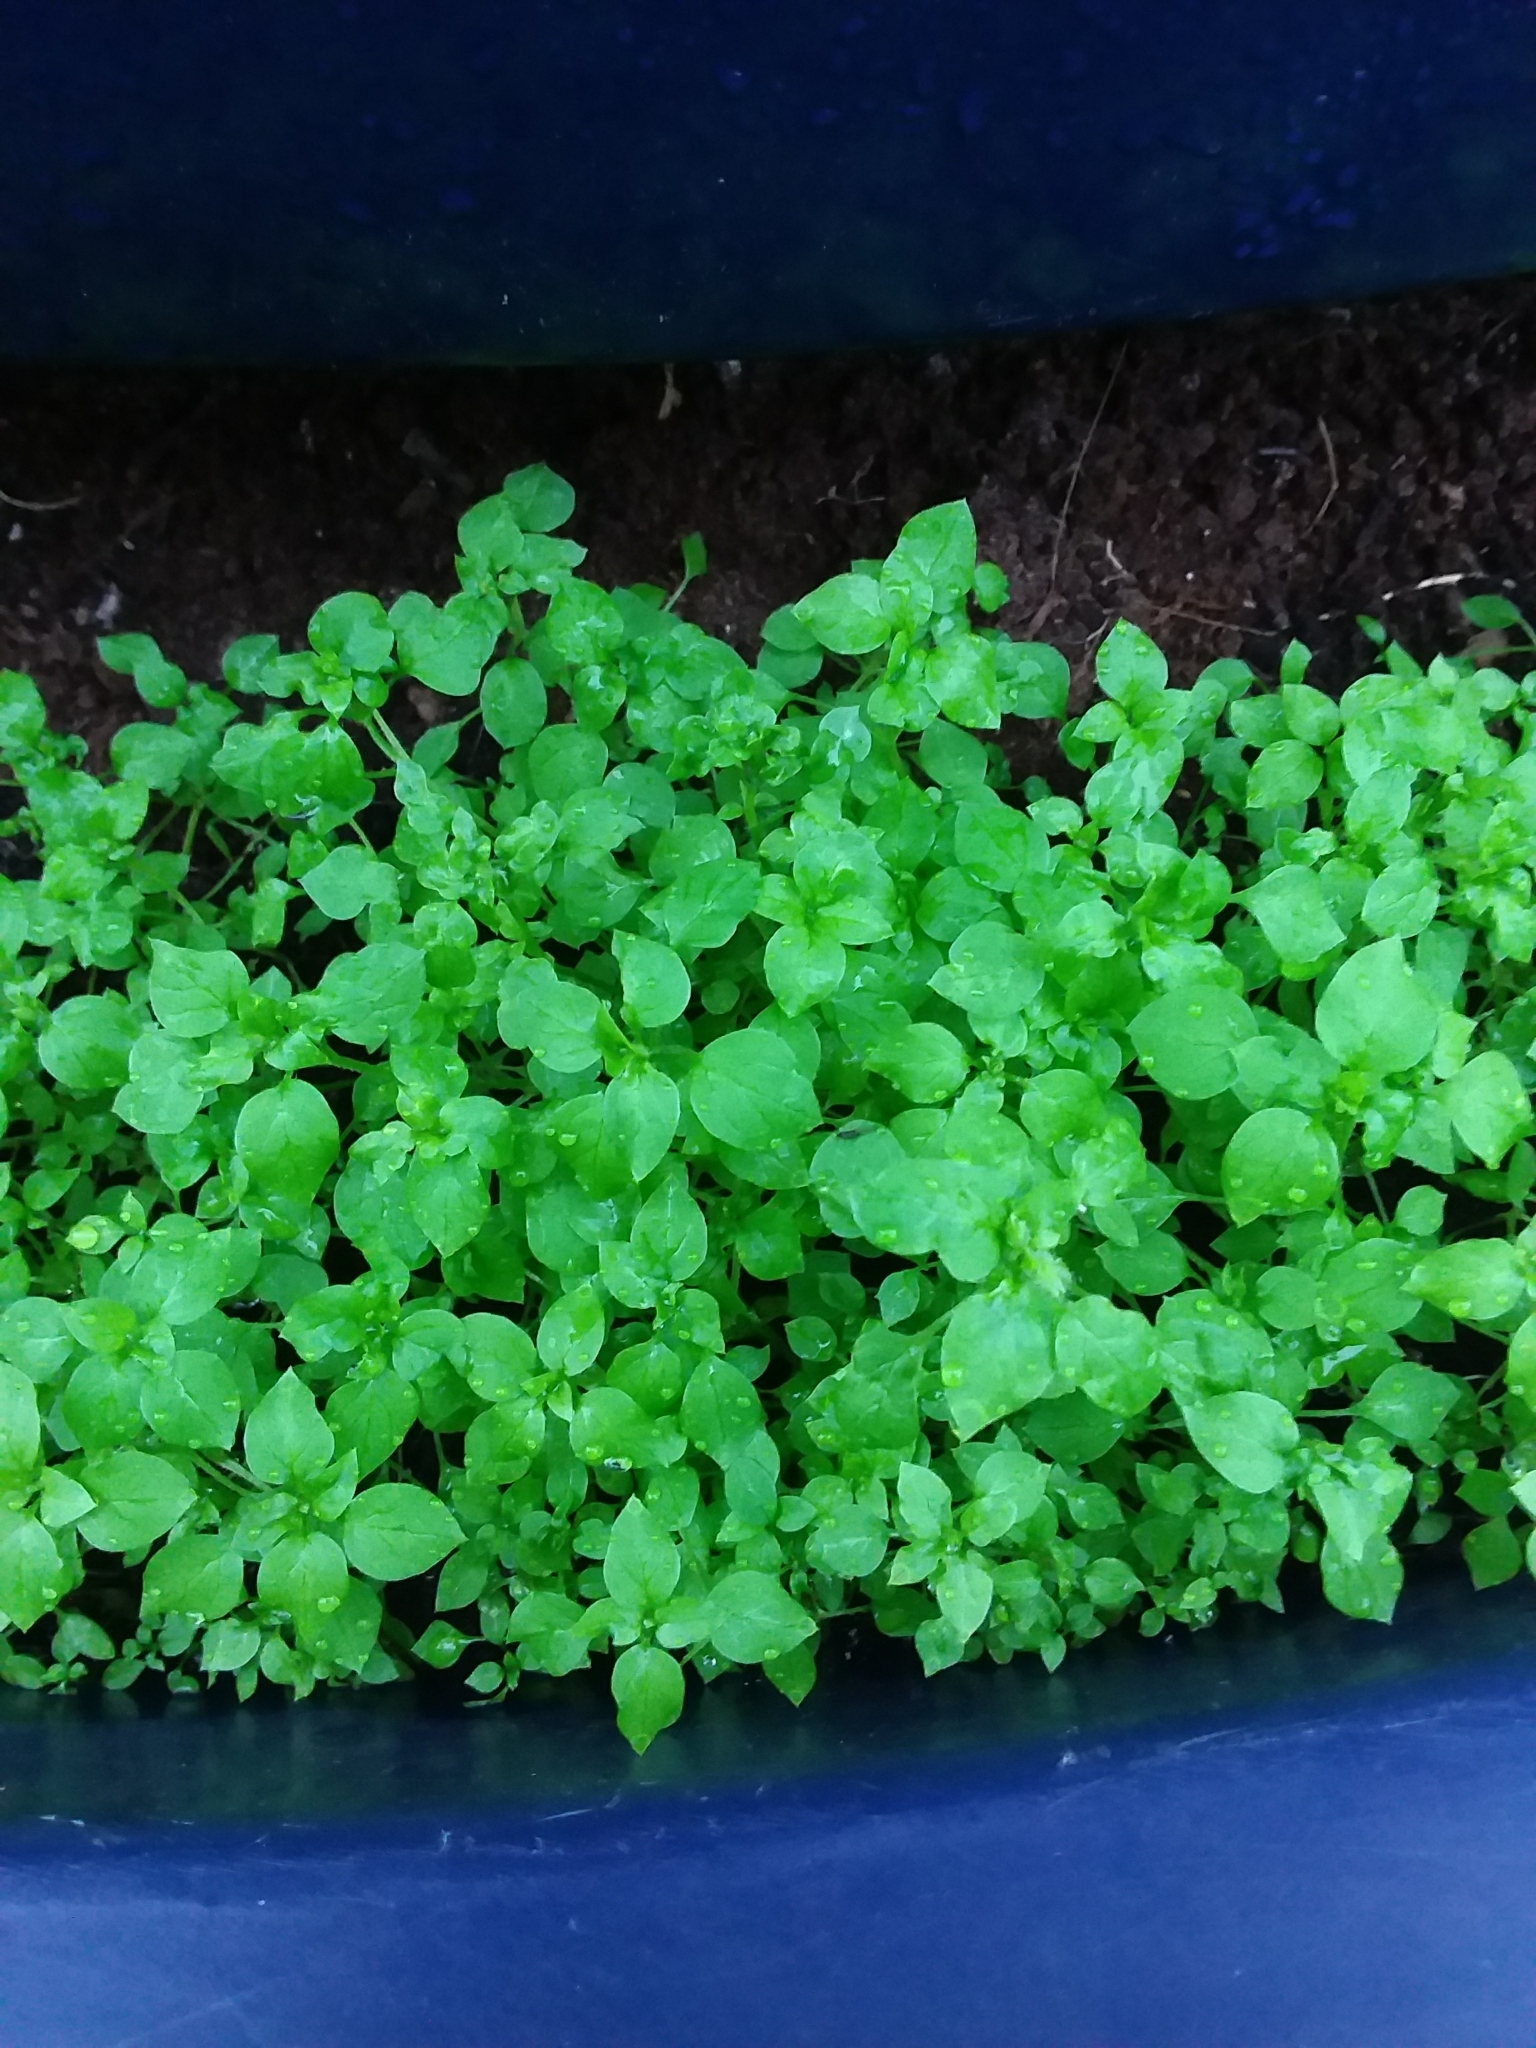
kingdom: Plantae
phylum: Tracheophyta
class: Magnoliopsida
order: Caryophyllales
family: Caryophyllaceae
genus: Stellaria
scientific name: Stellaria media
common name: Common chickweed
